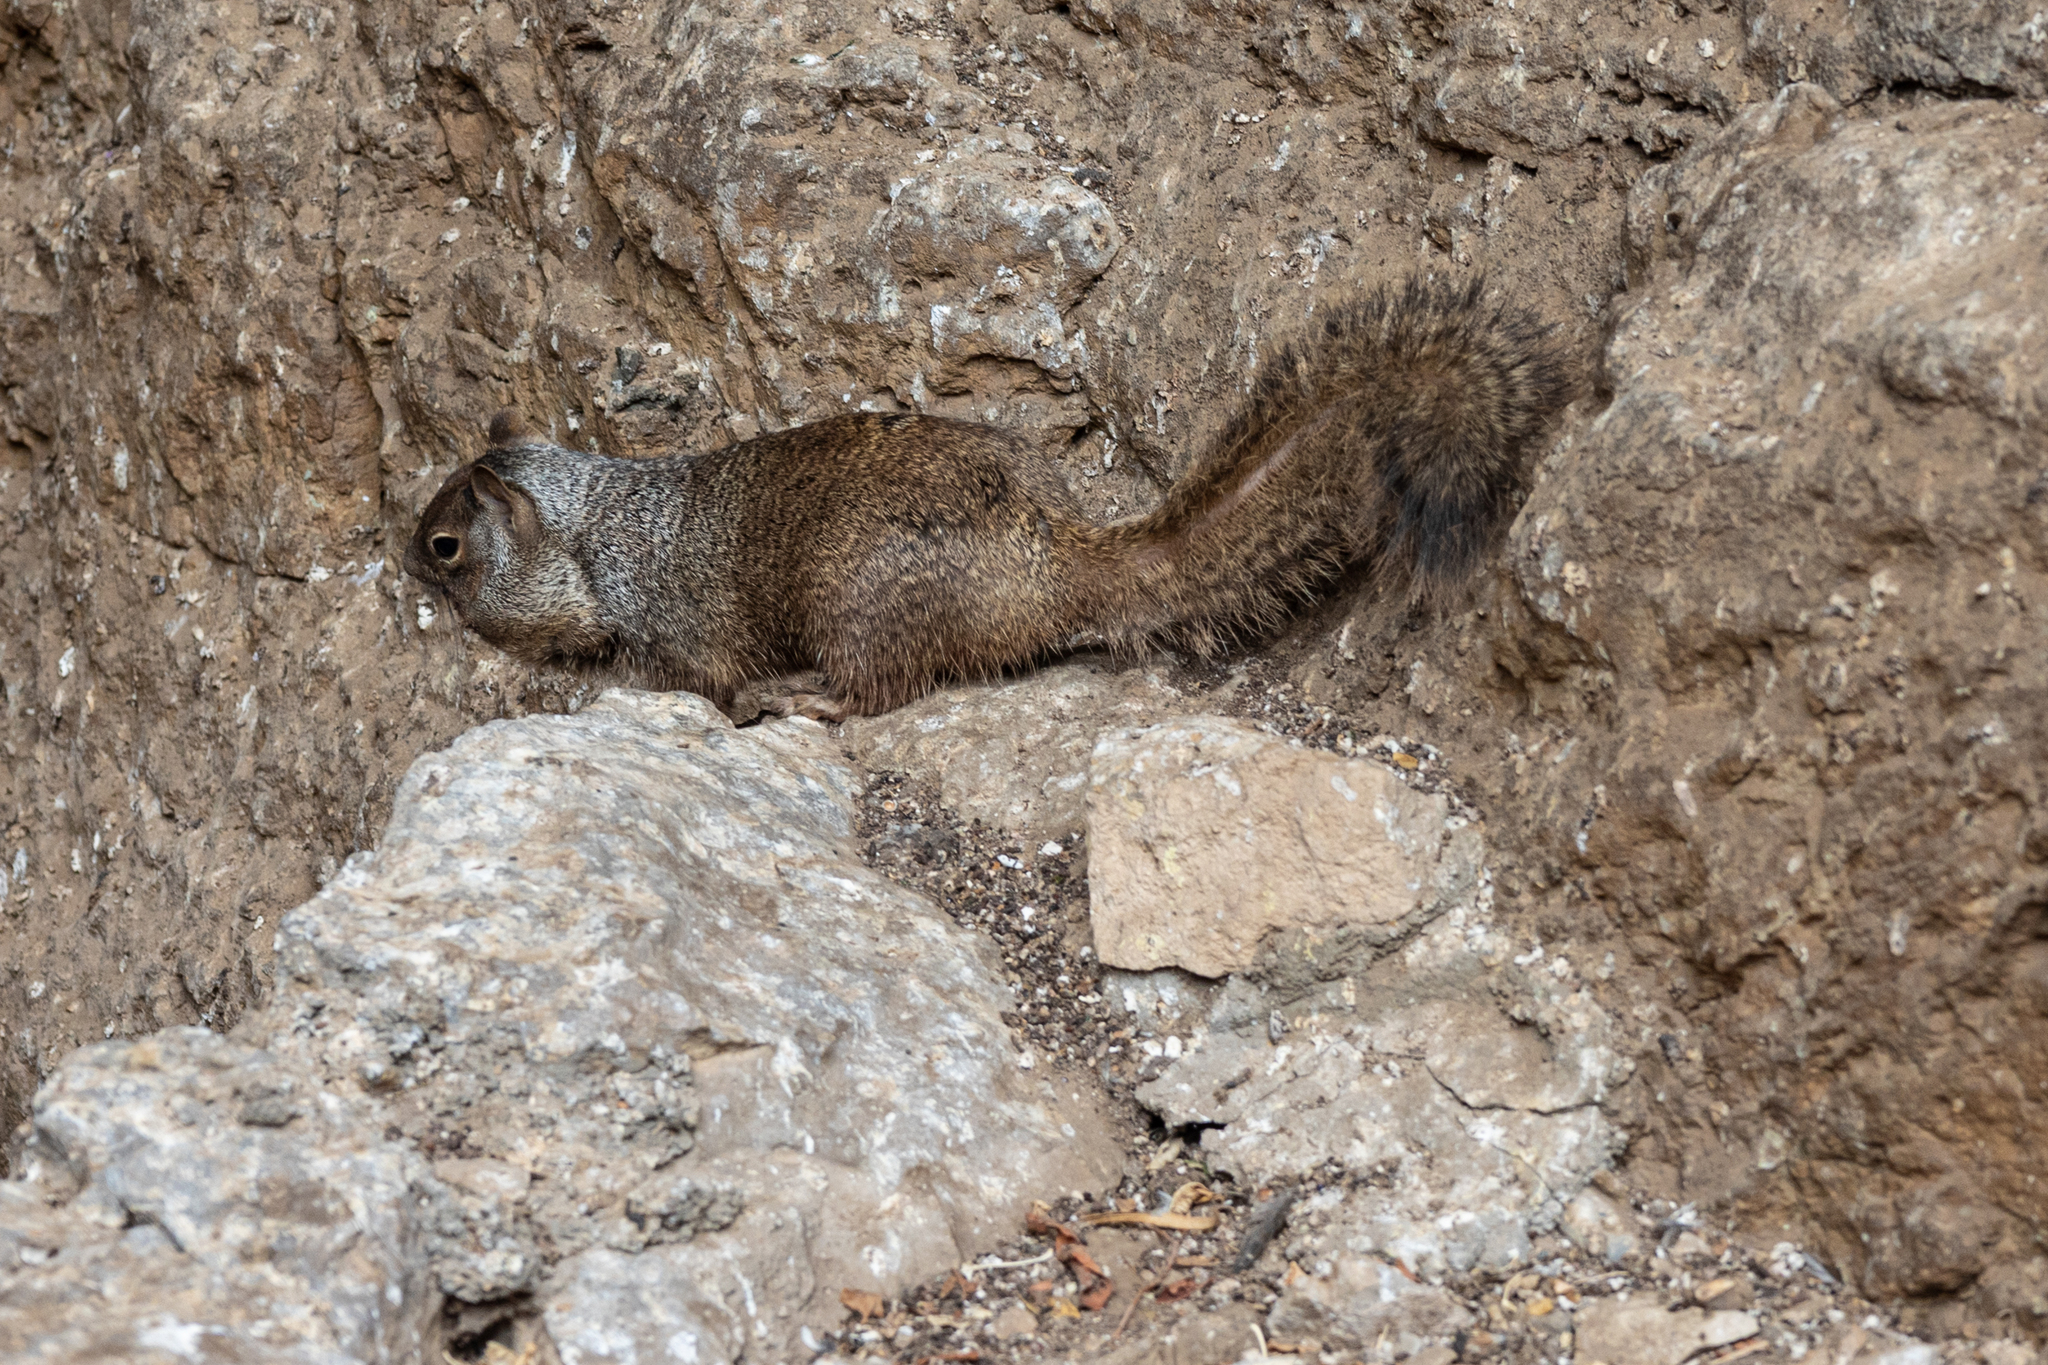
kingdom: Animalia
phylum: Chordata
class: Mammalia
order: Rodentia
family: Sciuridae
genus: Otospermophilus
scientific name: Otospermophilus variegatus
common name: Rock squirrel
